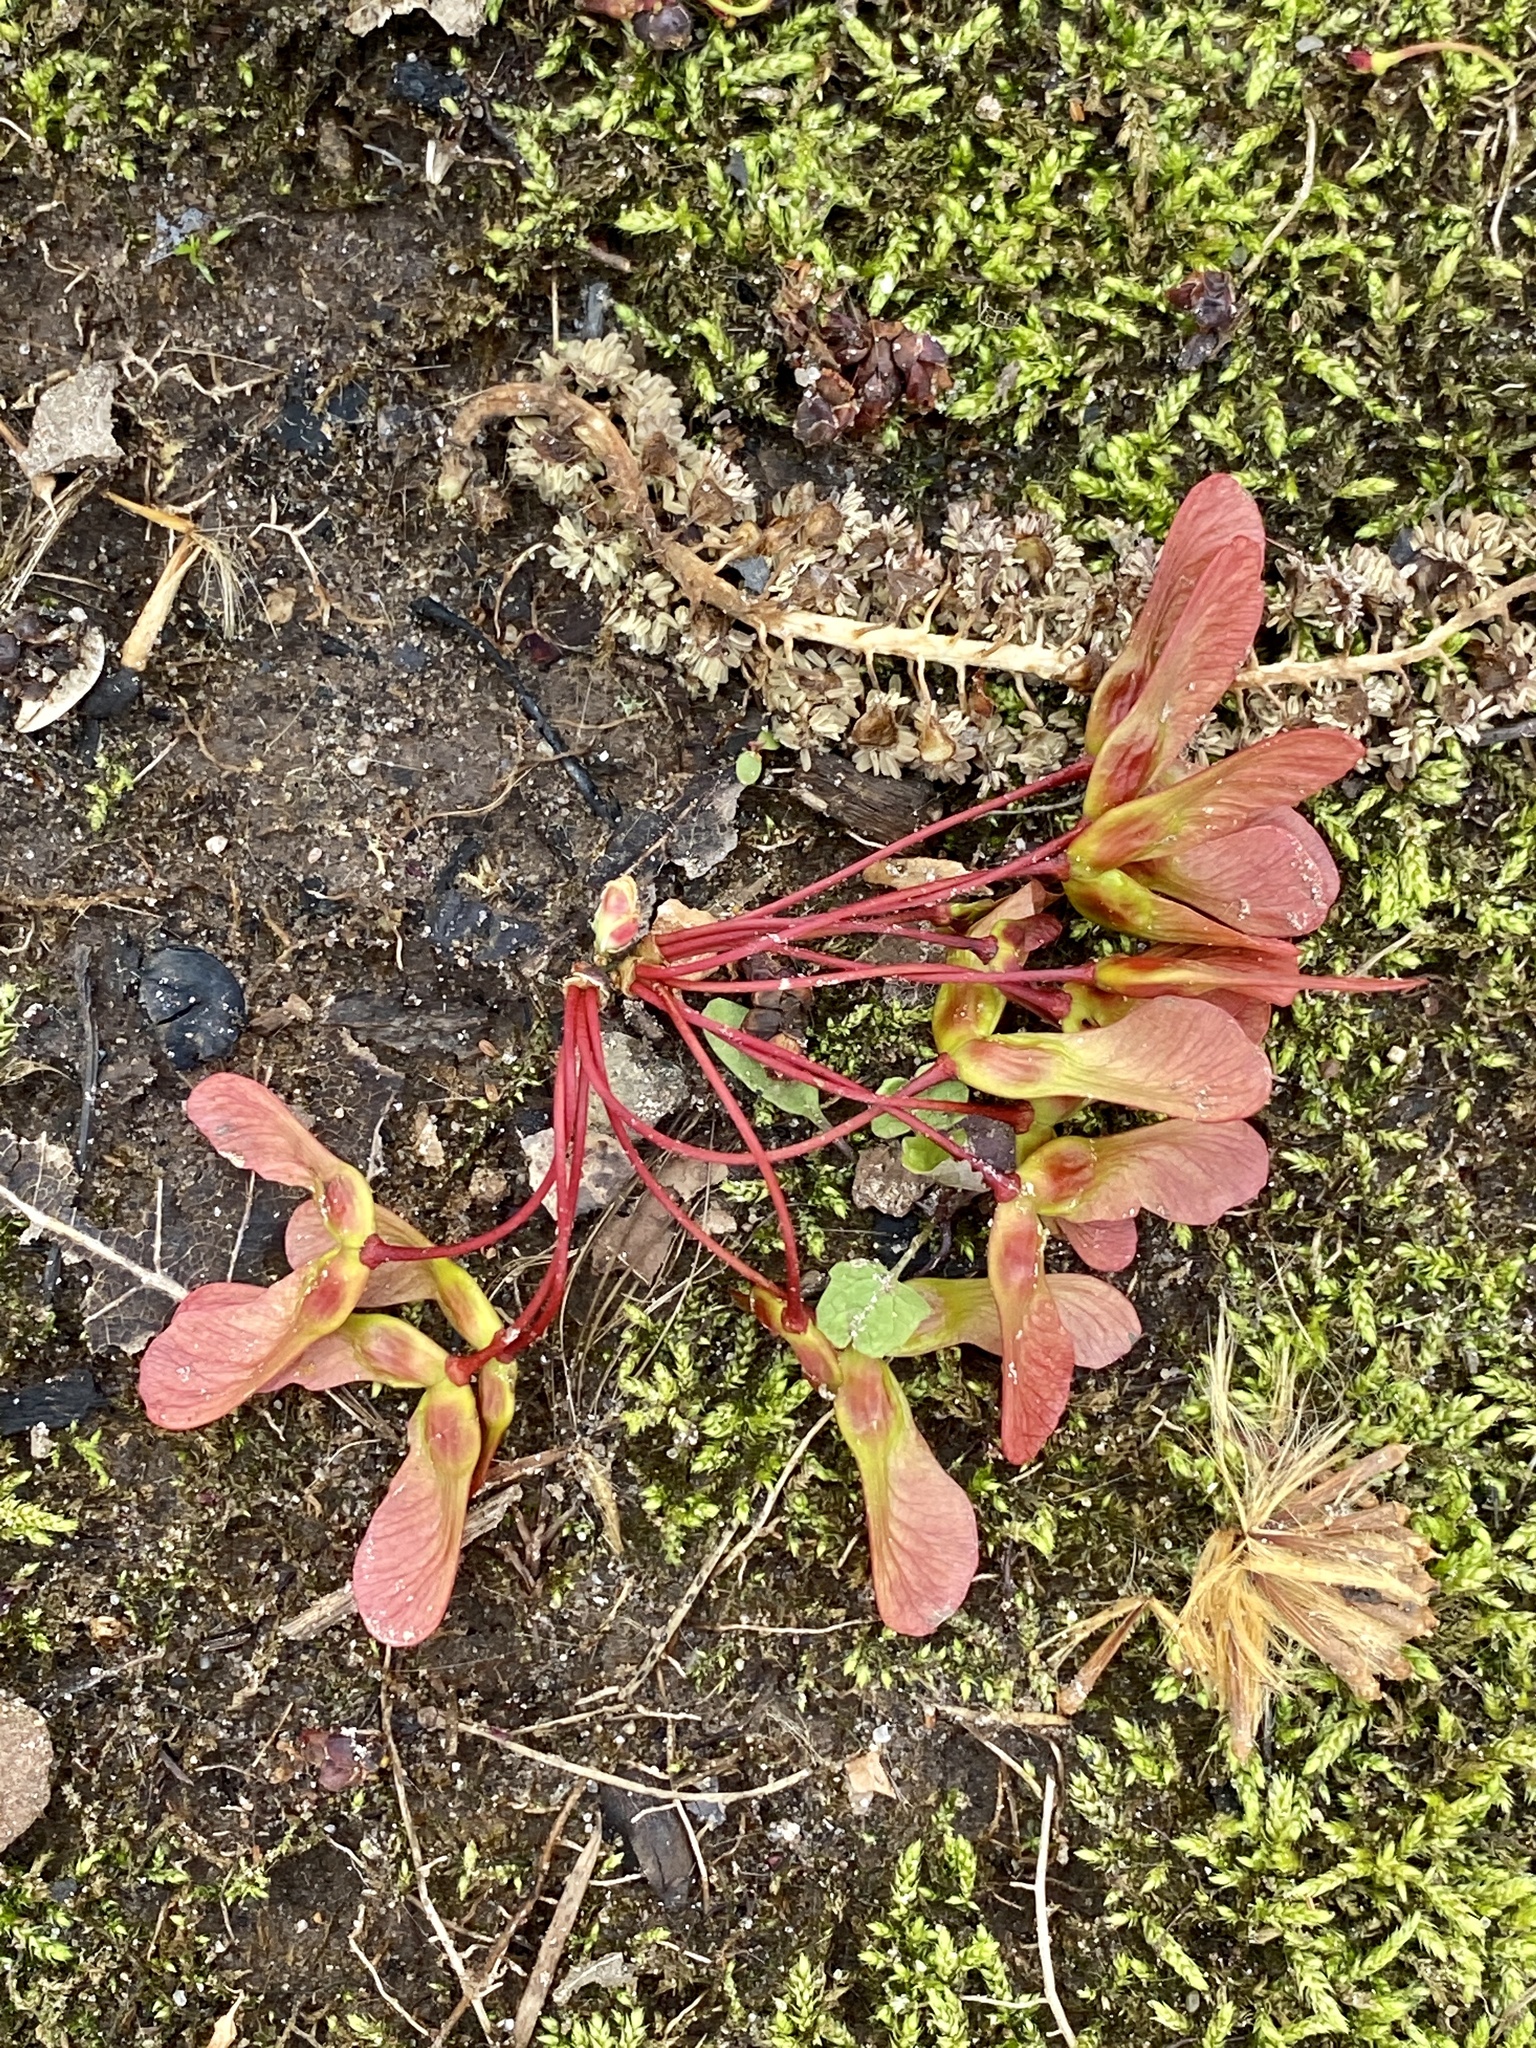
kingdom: Plantae
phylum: Tracheophyta
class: Magnoliopsida
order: Sapindales
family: Sapindaceae
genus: Acer
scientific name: Acer rubrum
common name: Red maple
